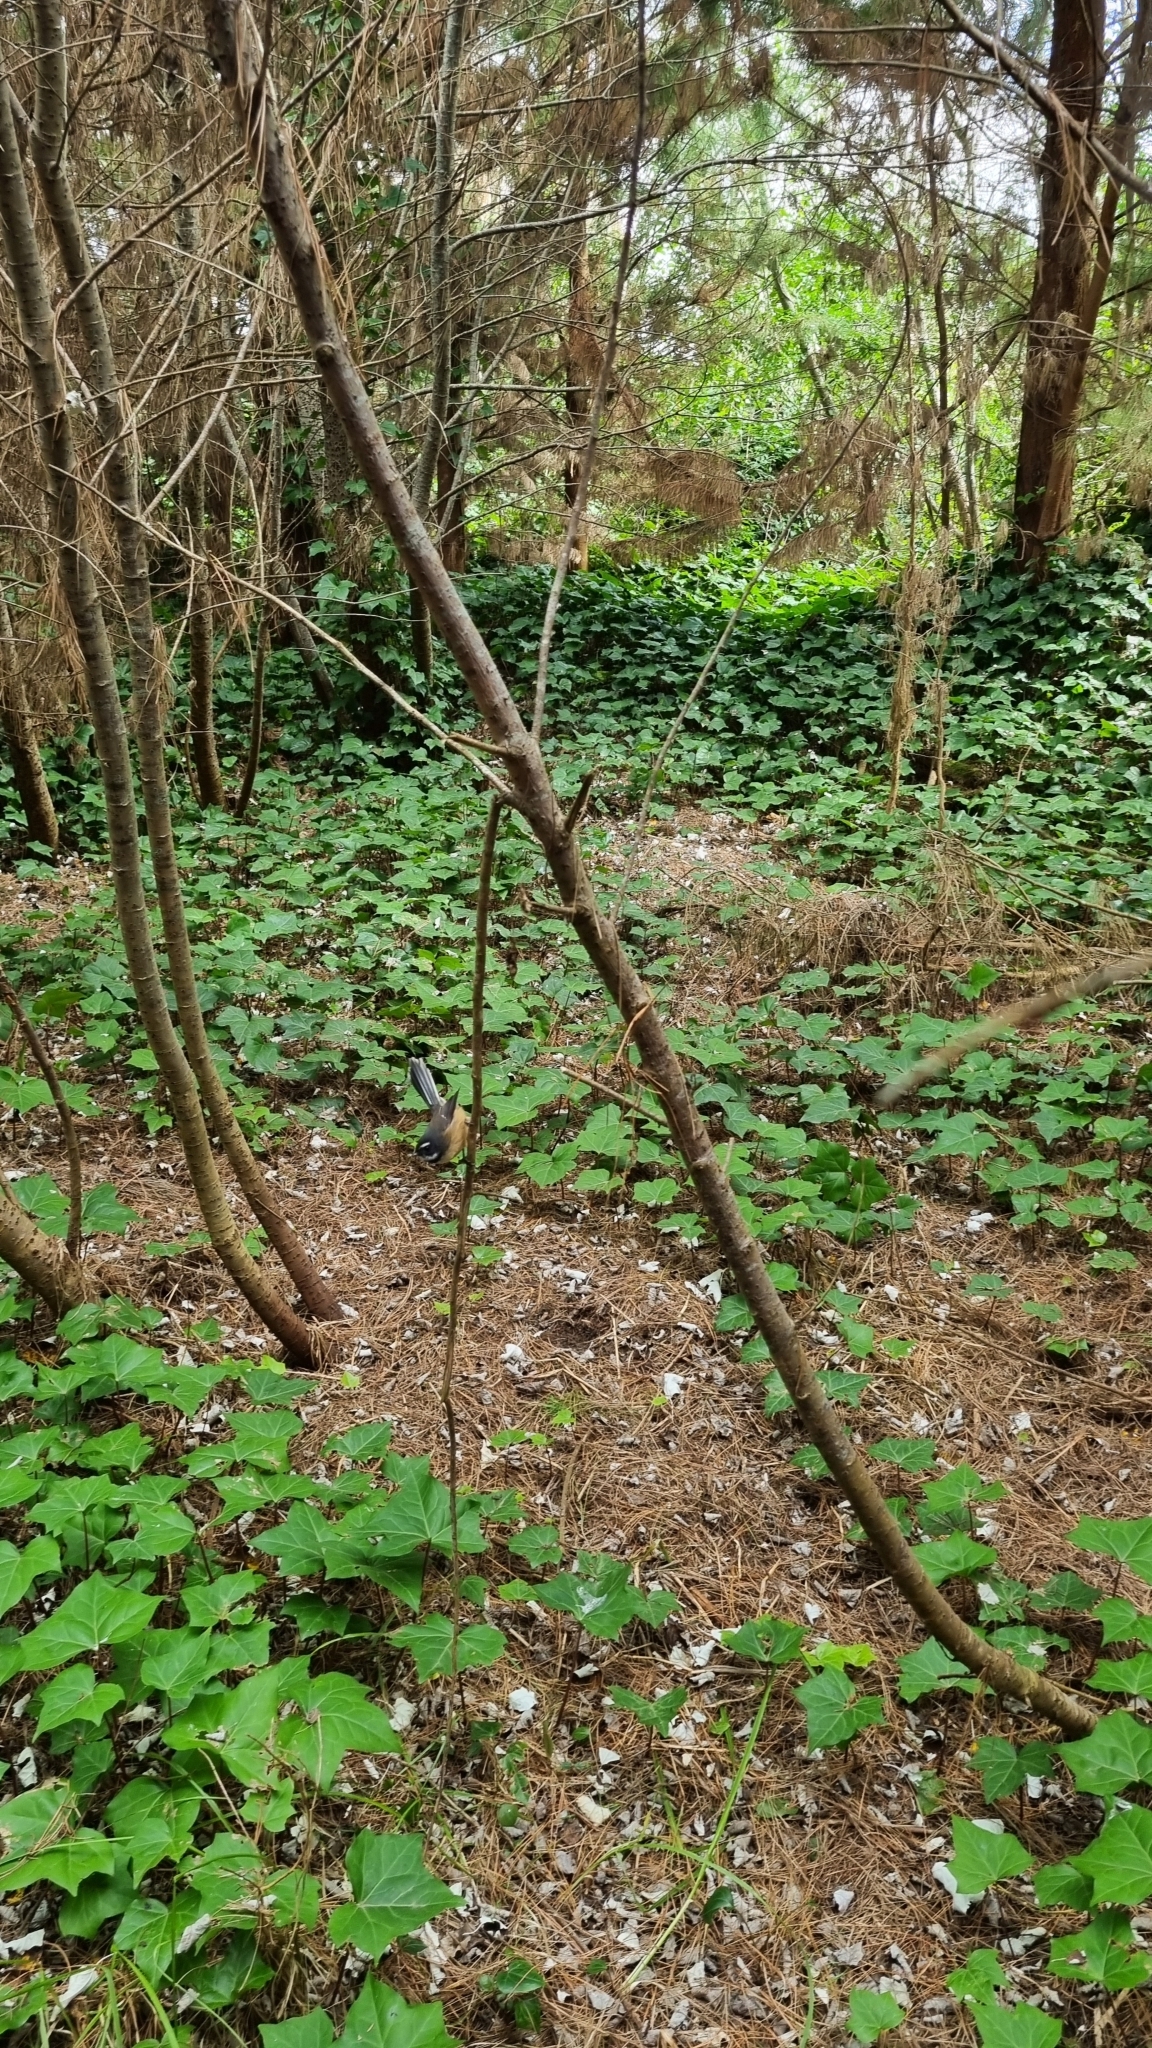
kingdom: Animalia
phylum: Chordata
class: Aves
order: Passeriformes
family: Rhipiduridae
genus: Rhipidura
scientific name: Rhipidura fuliginosa
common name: New zealand fantail
